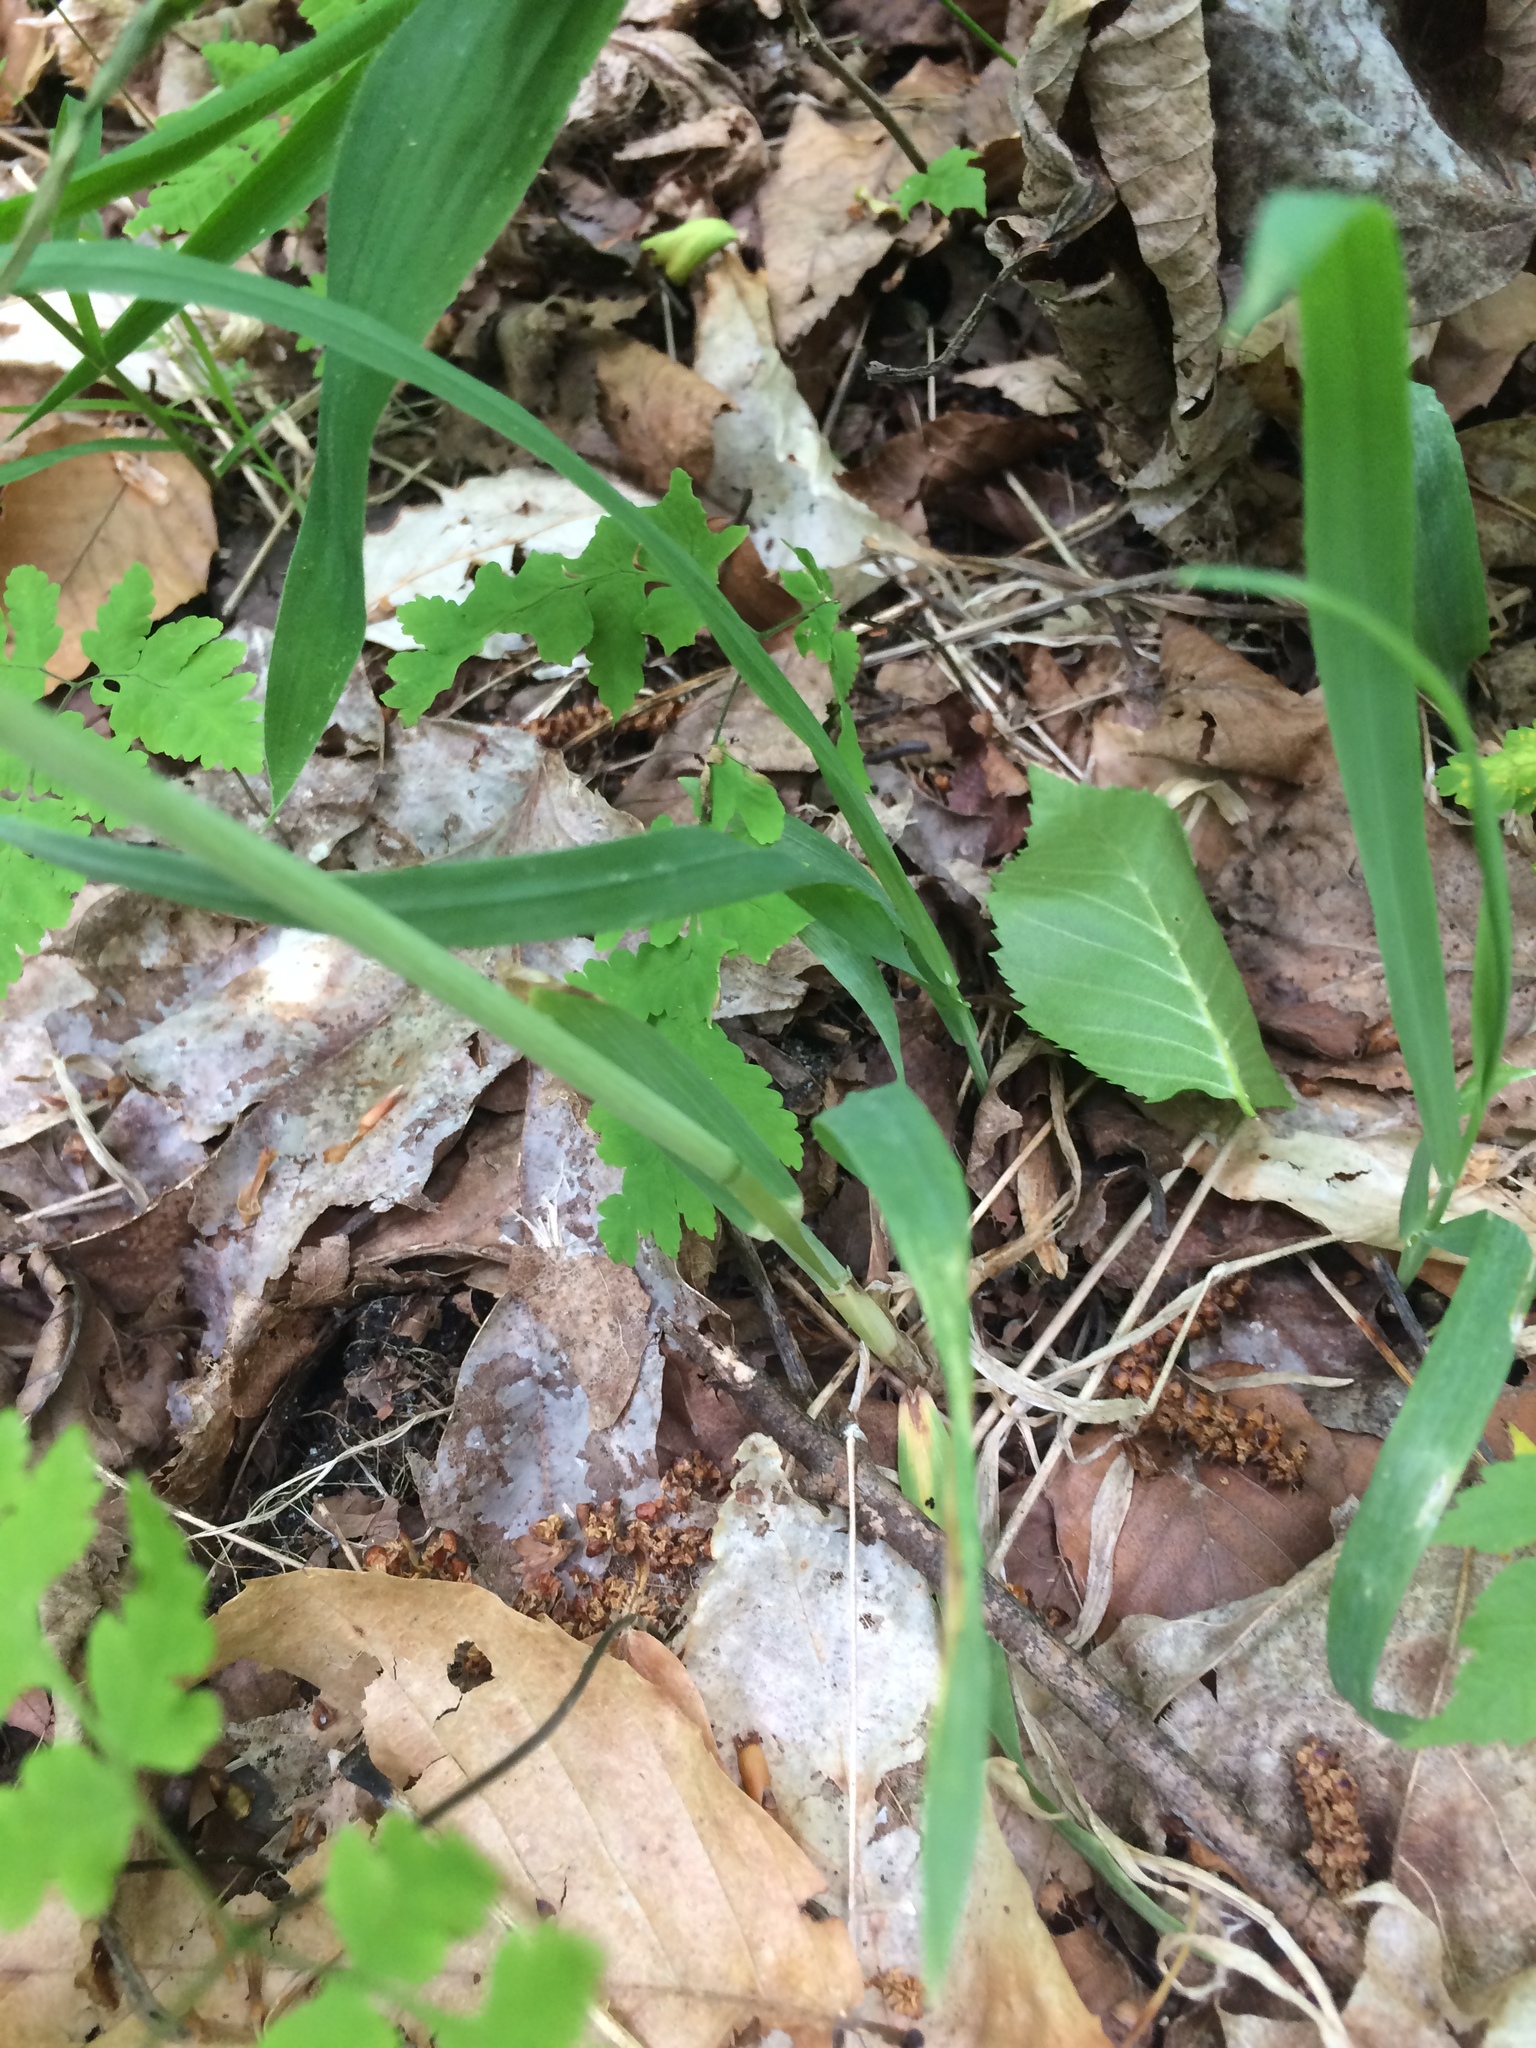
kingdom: Plantae
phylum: Tracheophyta
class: Liliopsida
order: Poales
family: Poaceae
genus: Milium
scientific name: Milium effusum
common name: Wood millet
